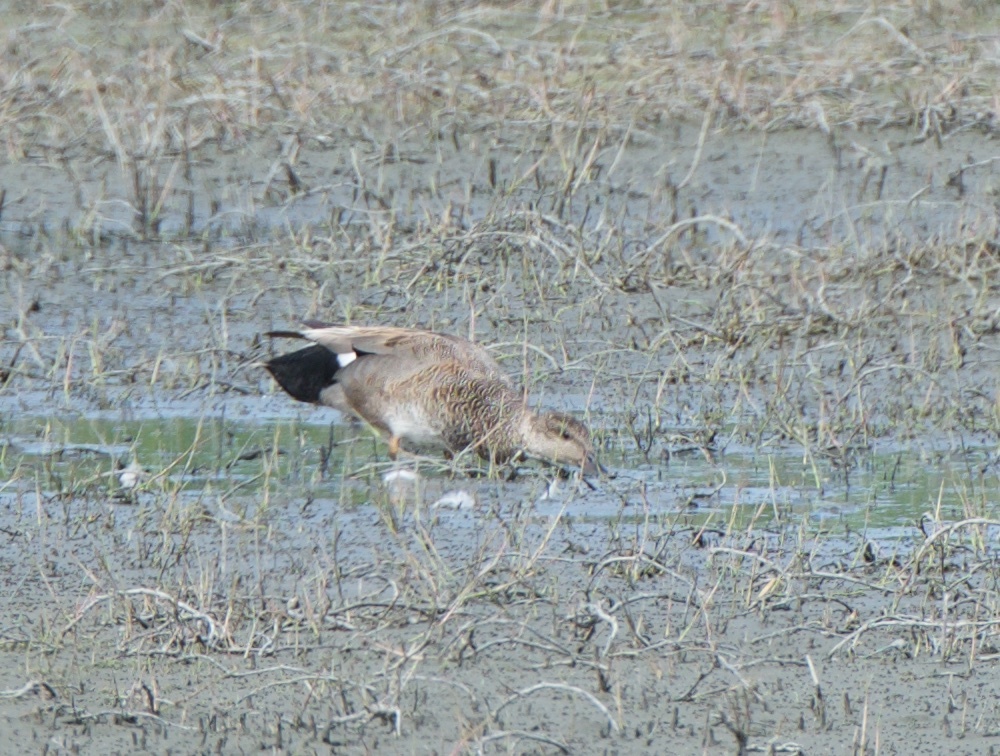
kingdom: Animalia
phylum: Chordata
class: Aves
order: Anseriformes
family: Anatidae
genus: Mareca
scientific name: Mareca strepera
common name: Gadwall
